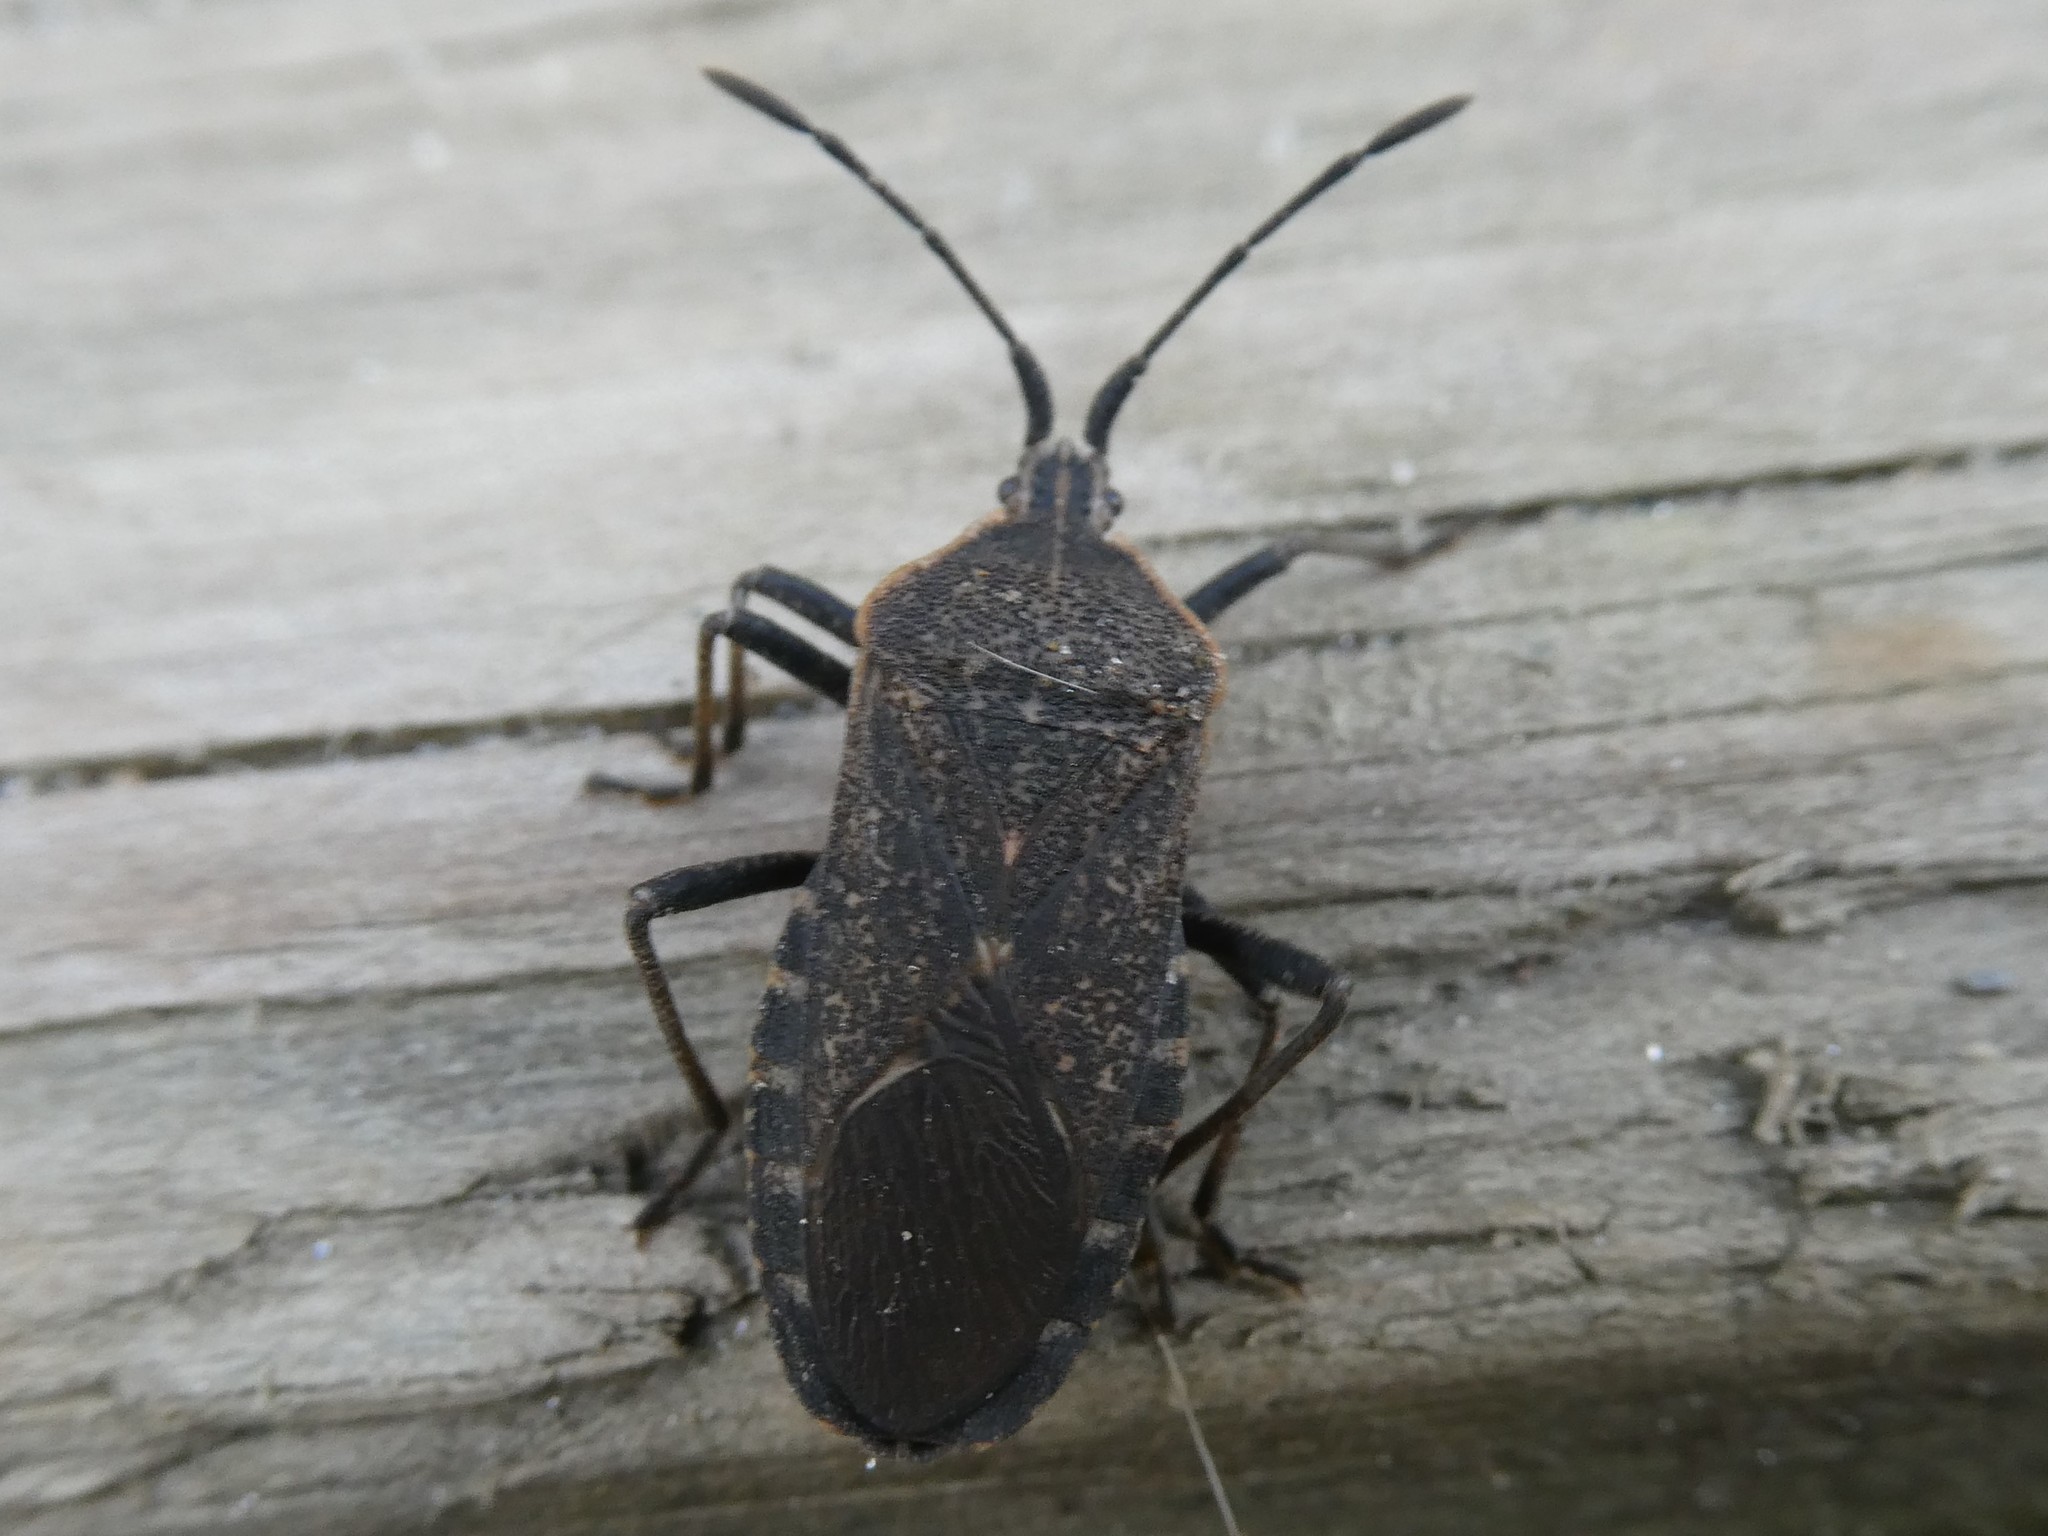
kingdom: Animalia
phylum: Arthropoda
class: Insecta
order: Hemiptera
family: Coreidae
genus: Anasa
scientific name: Anasa tristis
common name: Squash bug
